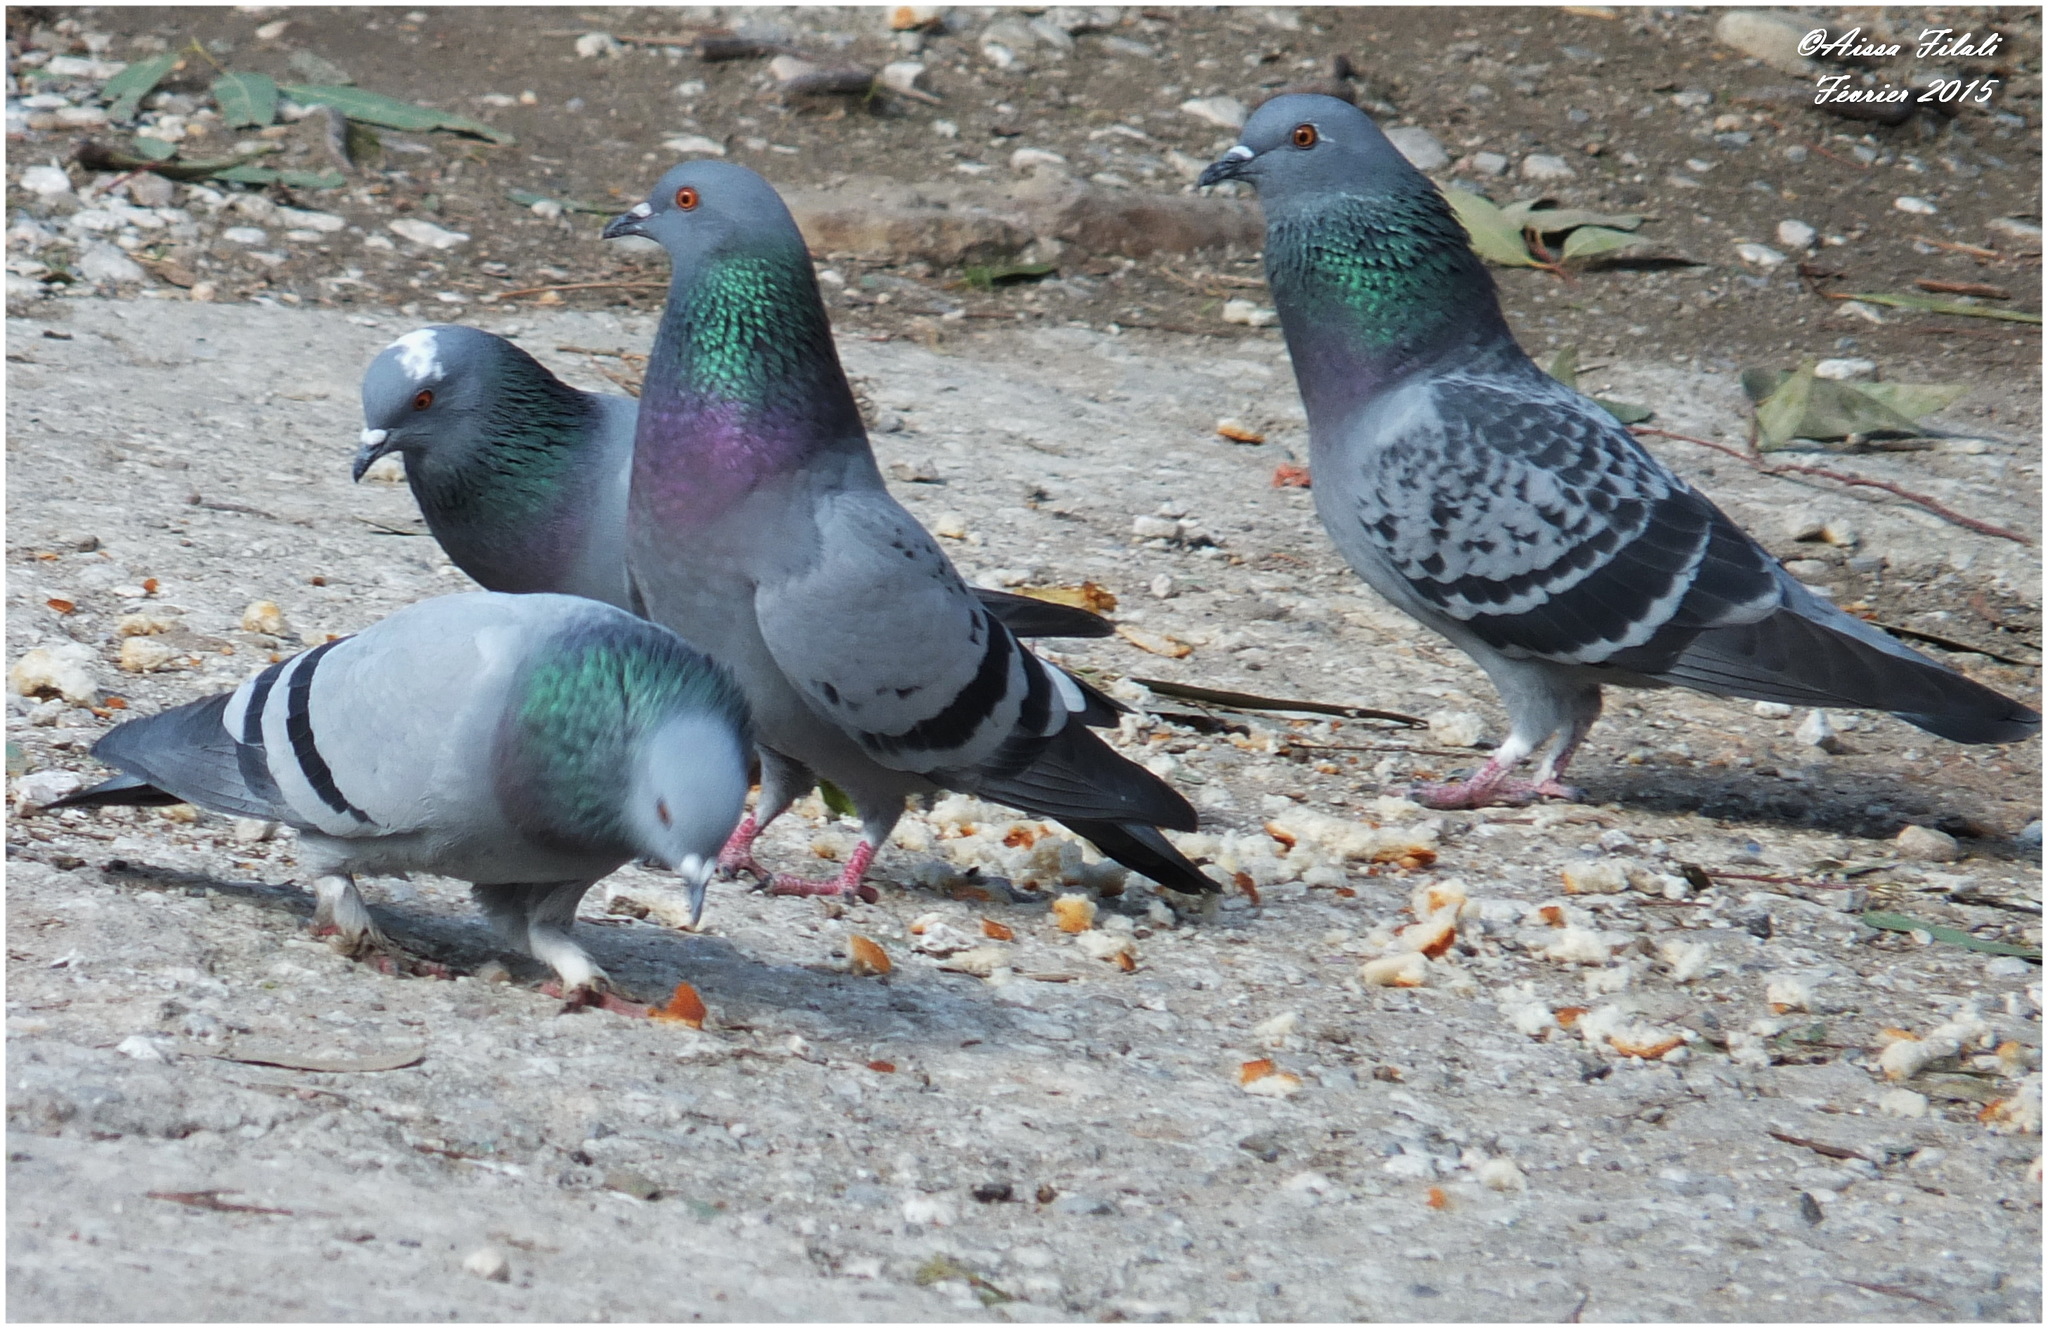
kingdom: Animalia
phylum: Chordata
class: Aves
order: Columbiformes
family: Columbidae
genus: Columba
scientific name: Columba livia
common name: Rock pigeon
